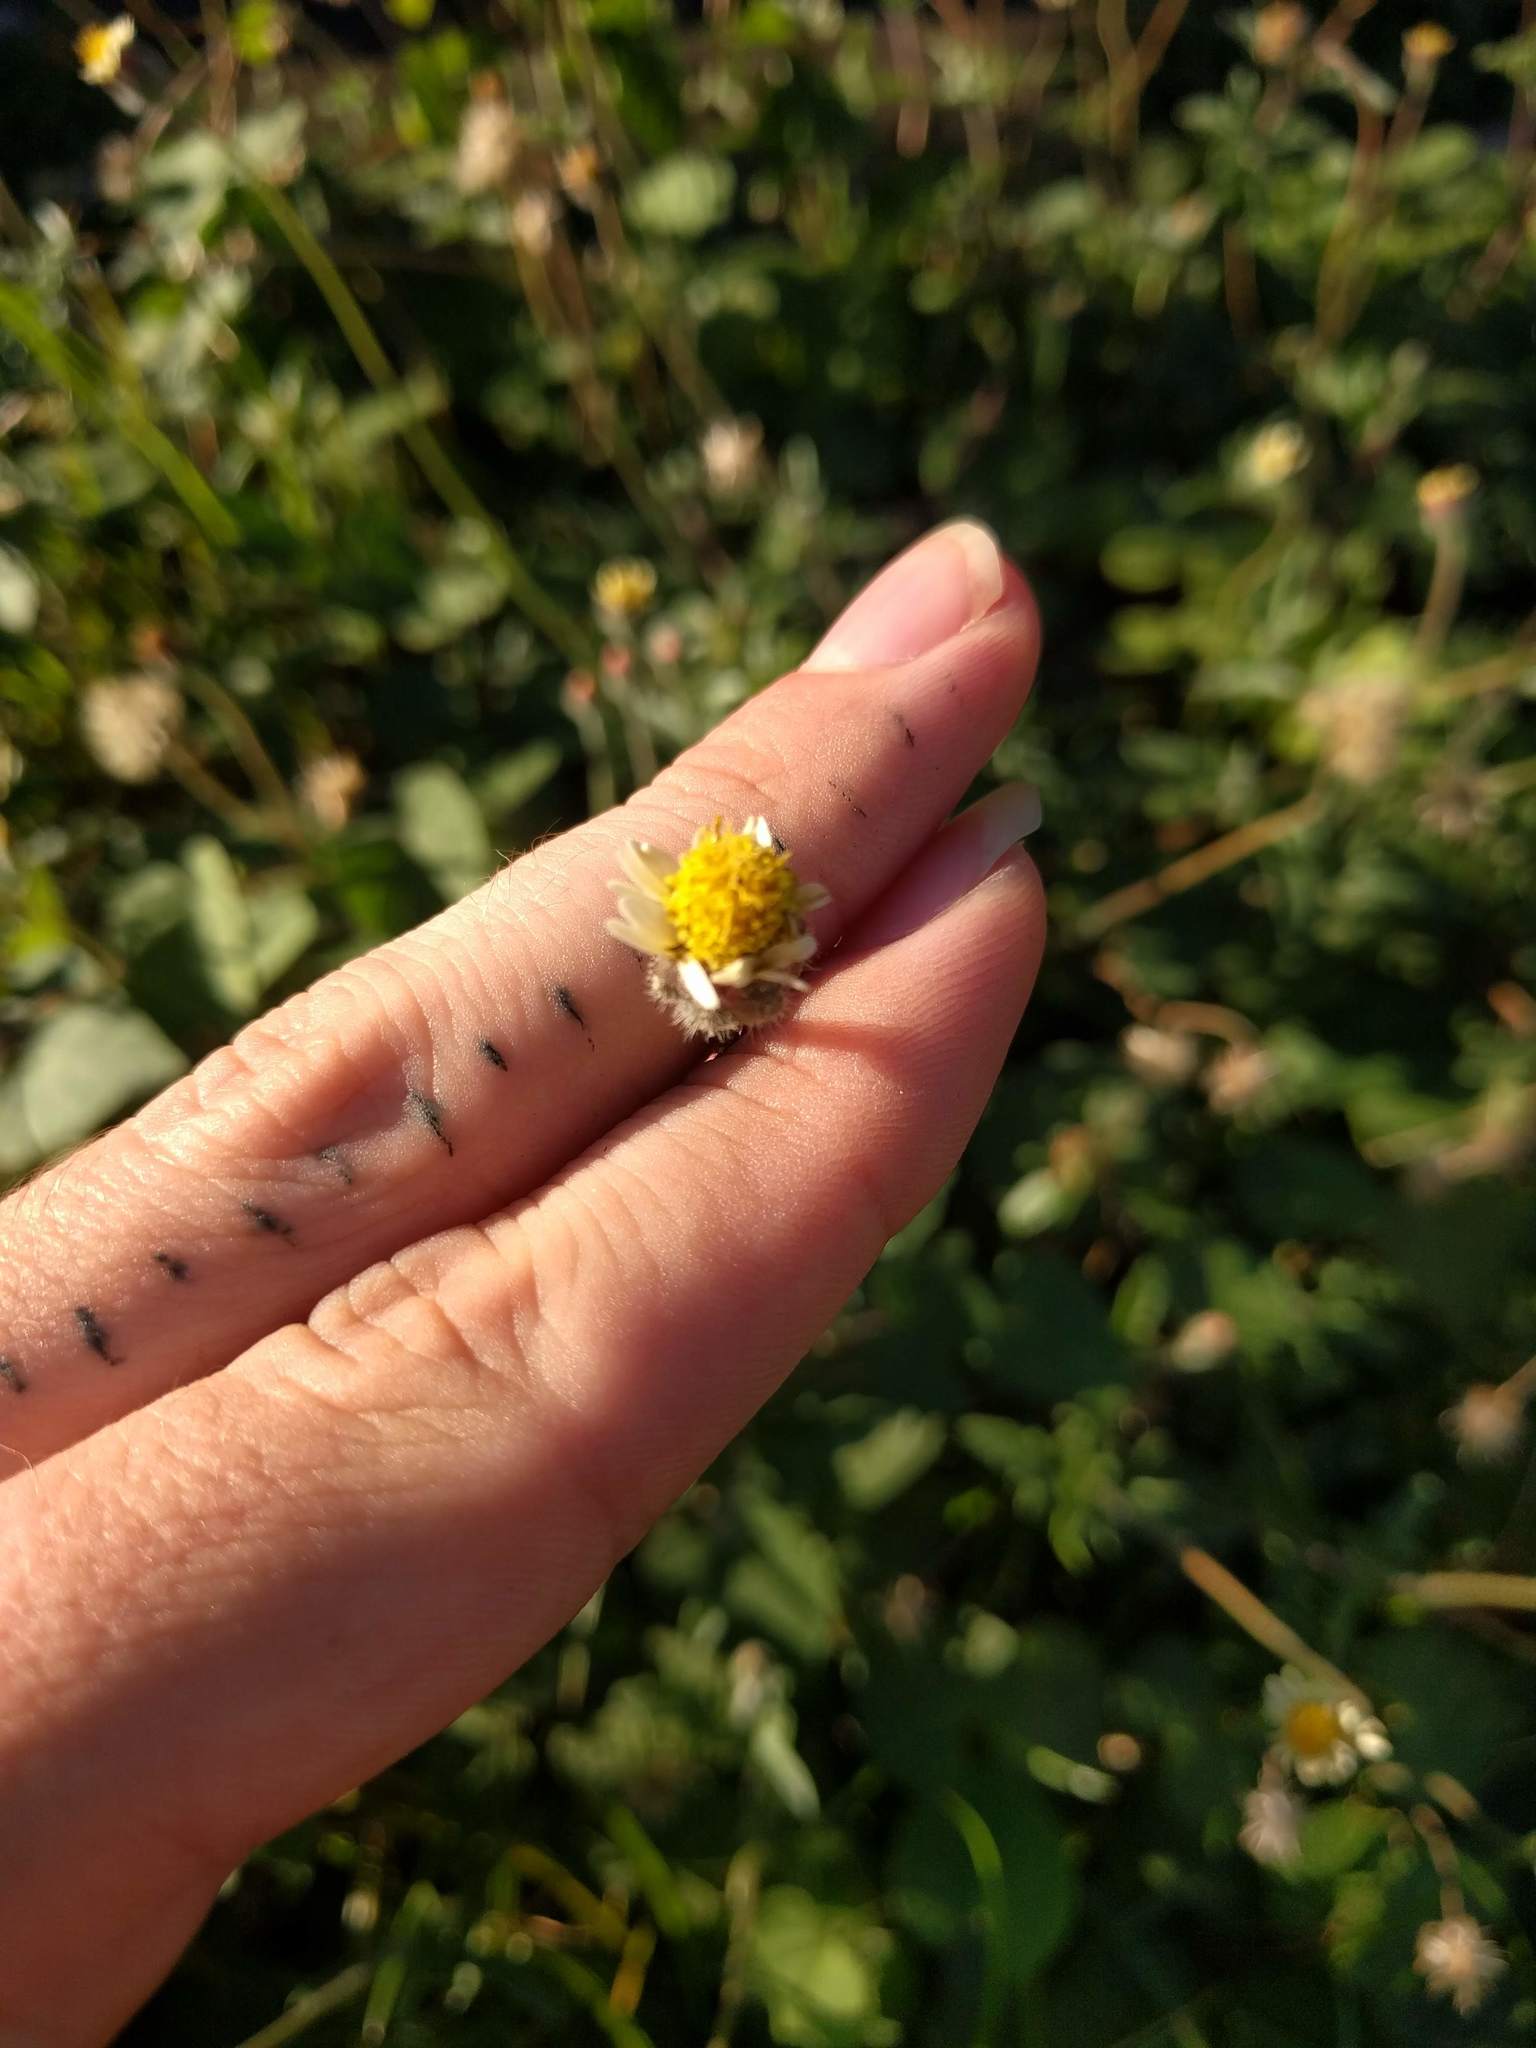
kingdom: Plantae
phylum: Tracheophyta
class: Magnoliopsida
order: Asterales
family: Asteraceae
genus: Tridax
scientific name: Tridax procumbens
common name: Coatbuttons
